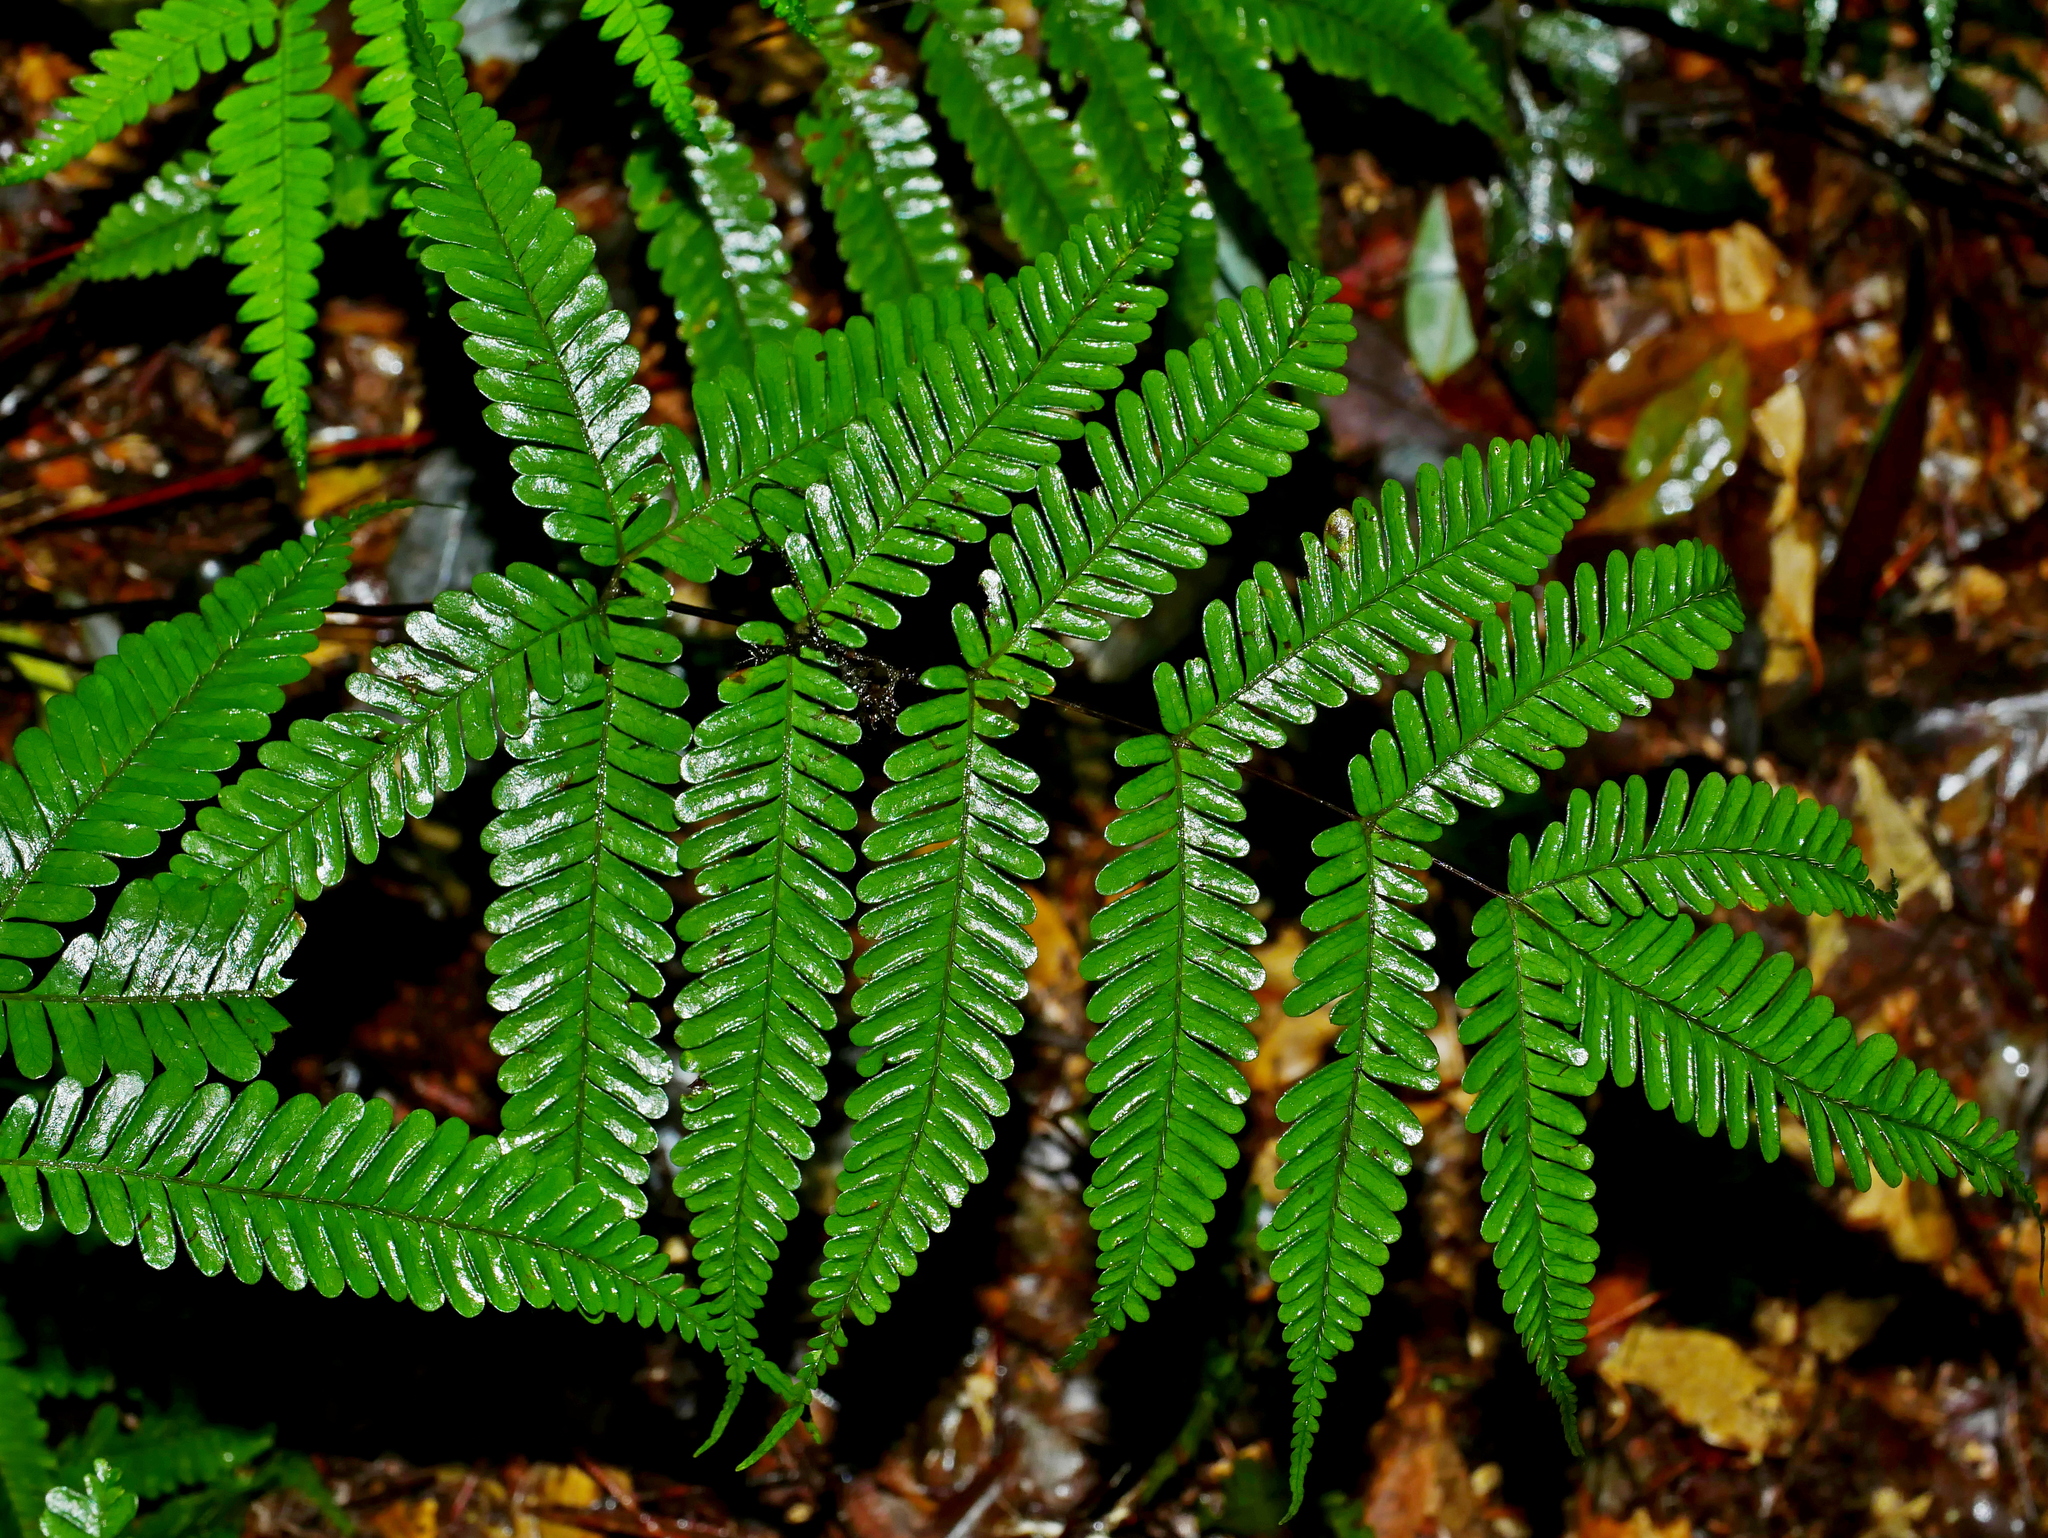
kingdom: Plantae
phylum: Tracheophyta
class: Polypodiopsida
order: Polypodiales
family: Pteridaceae
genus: Pteris
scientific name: Pteris bella
